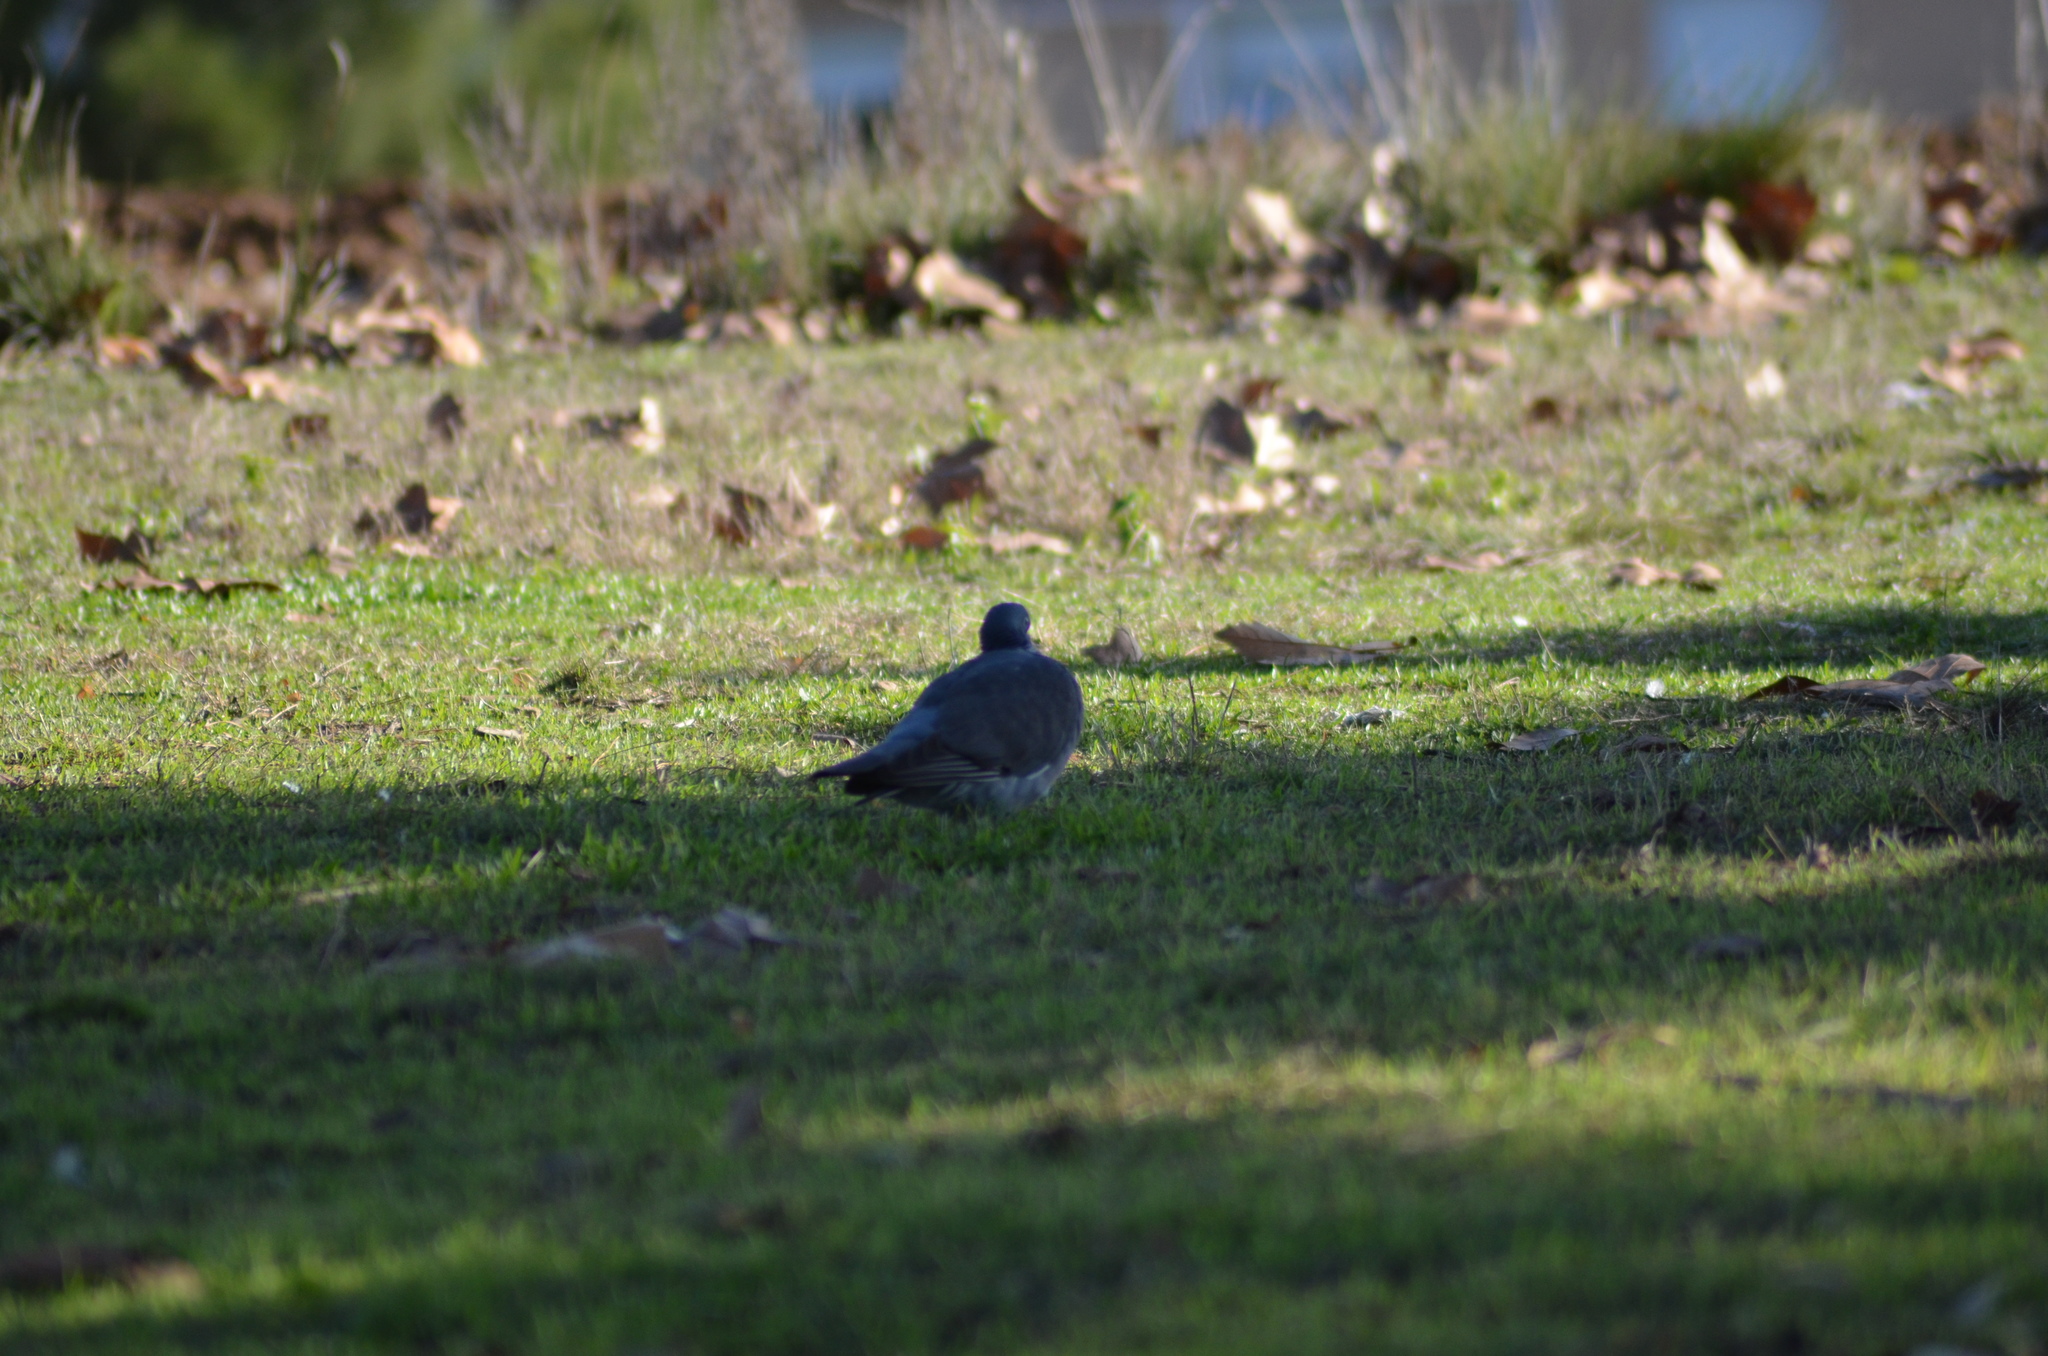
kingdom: Animalia
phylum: Chordata
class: Aves
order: Columbiformes
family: Columbidae
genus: Columba
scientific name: Columba palumbus
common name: Common wood pigeon
